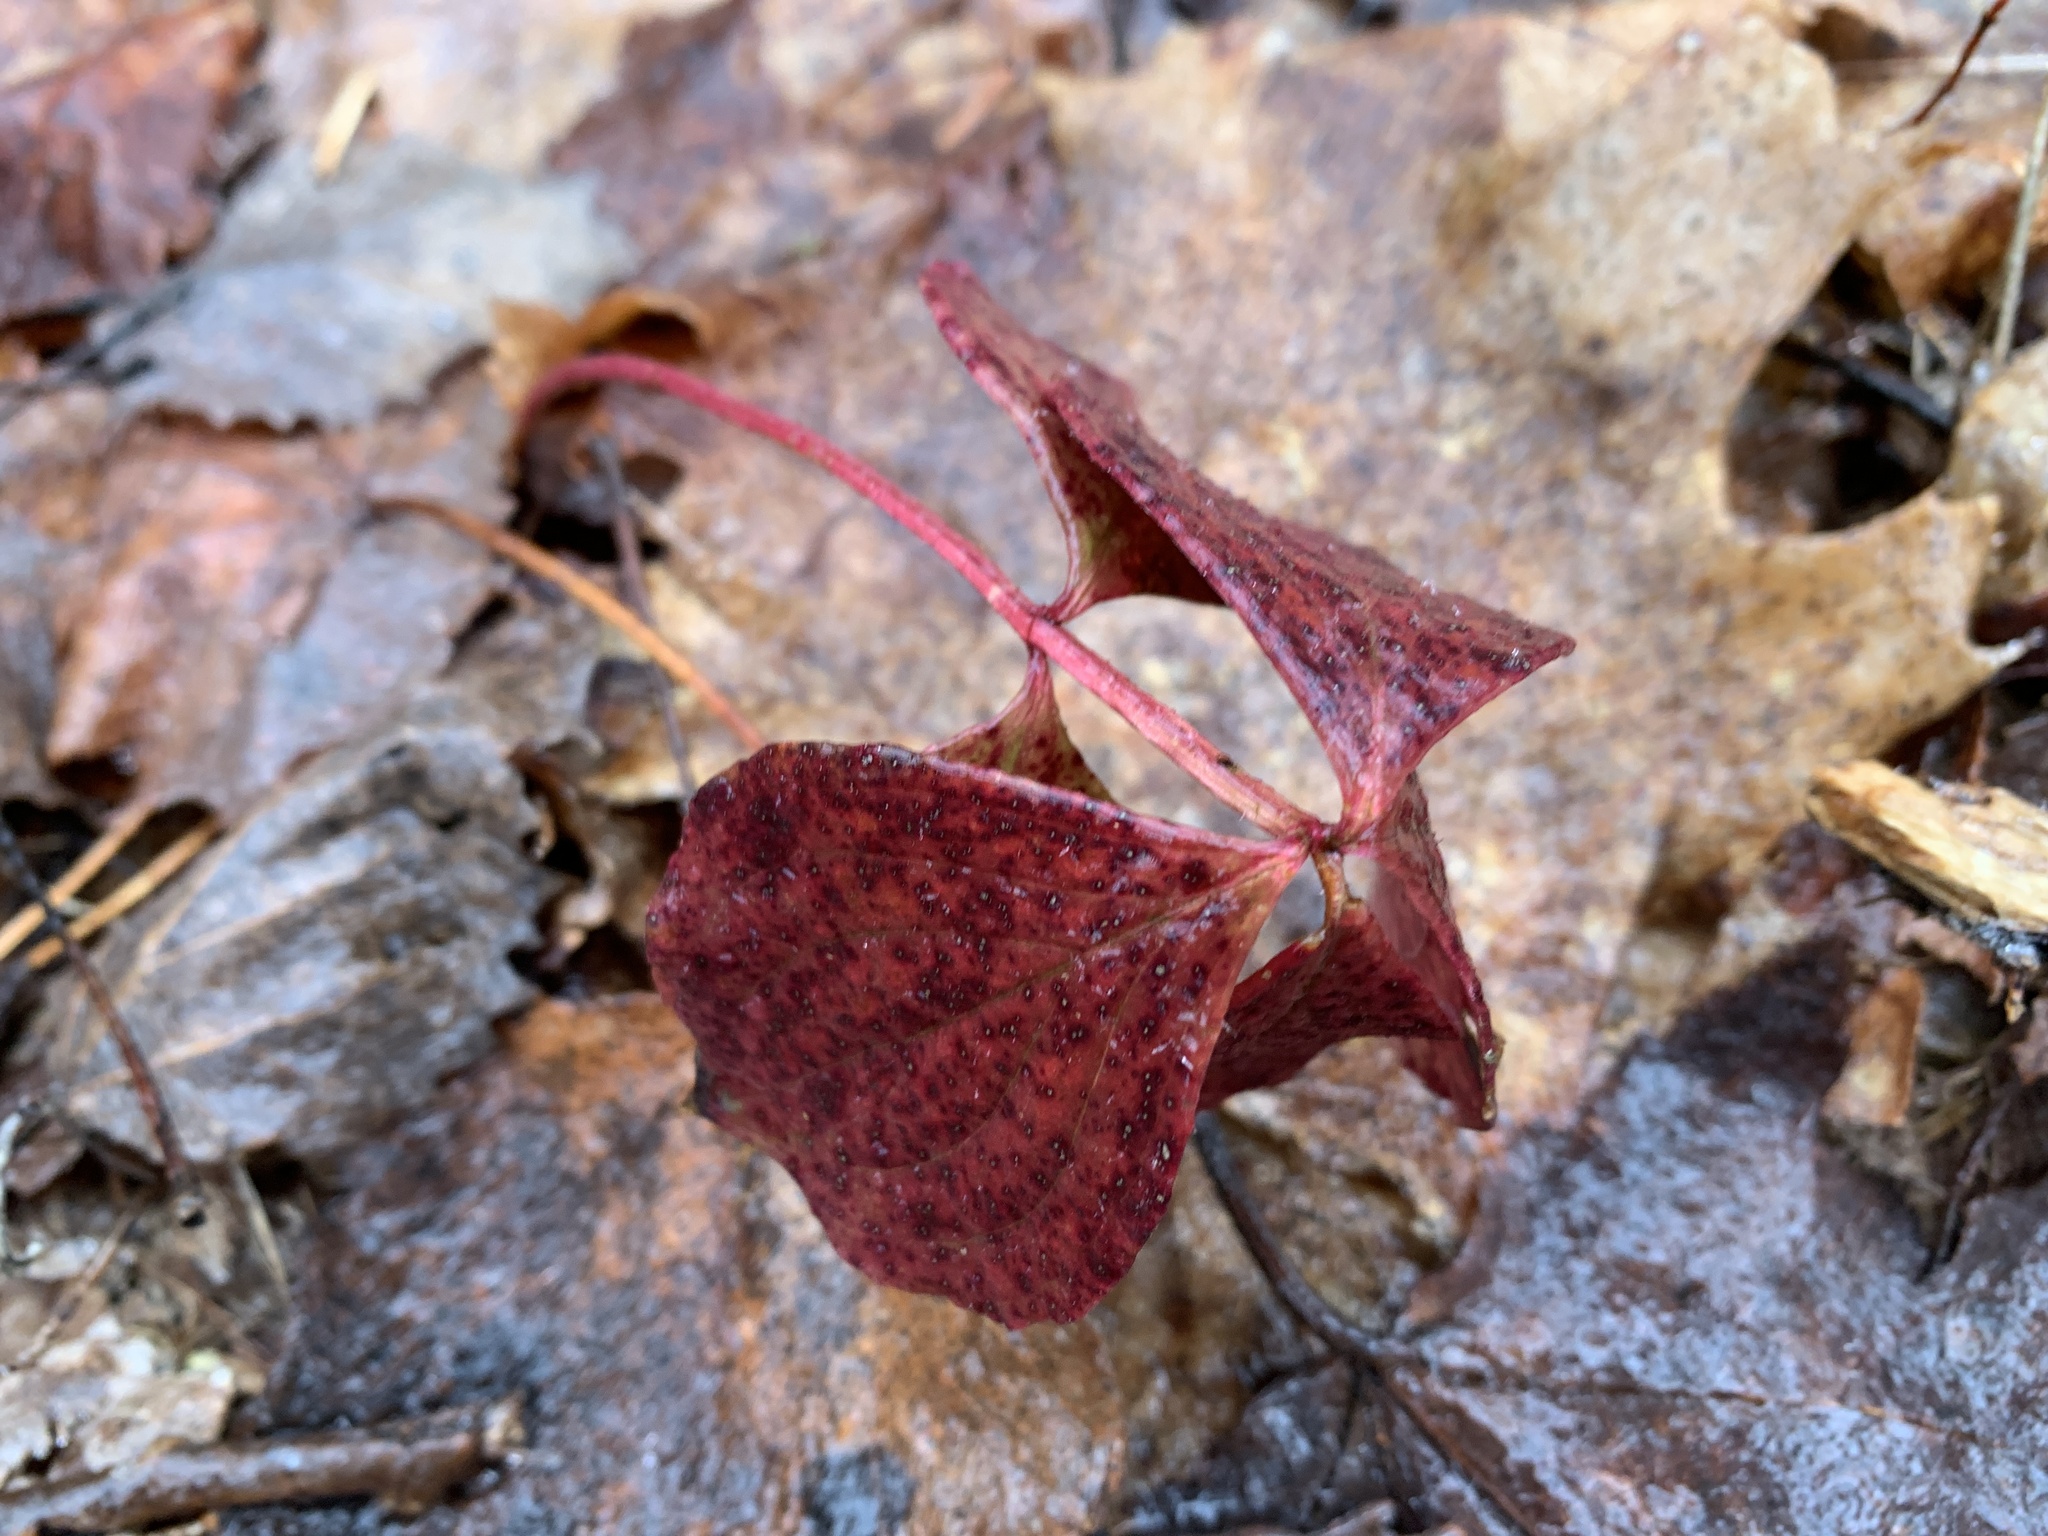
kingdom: Plantae
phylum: Tracheophyta
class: Magnoliopsida
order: Cornales
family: Cornaceae
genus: Cornus
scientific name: Cornus canadensis
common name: Creeping dogwood
